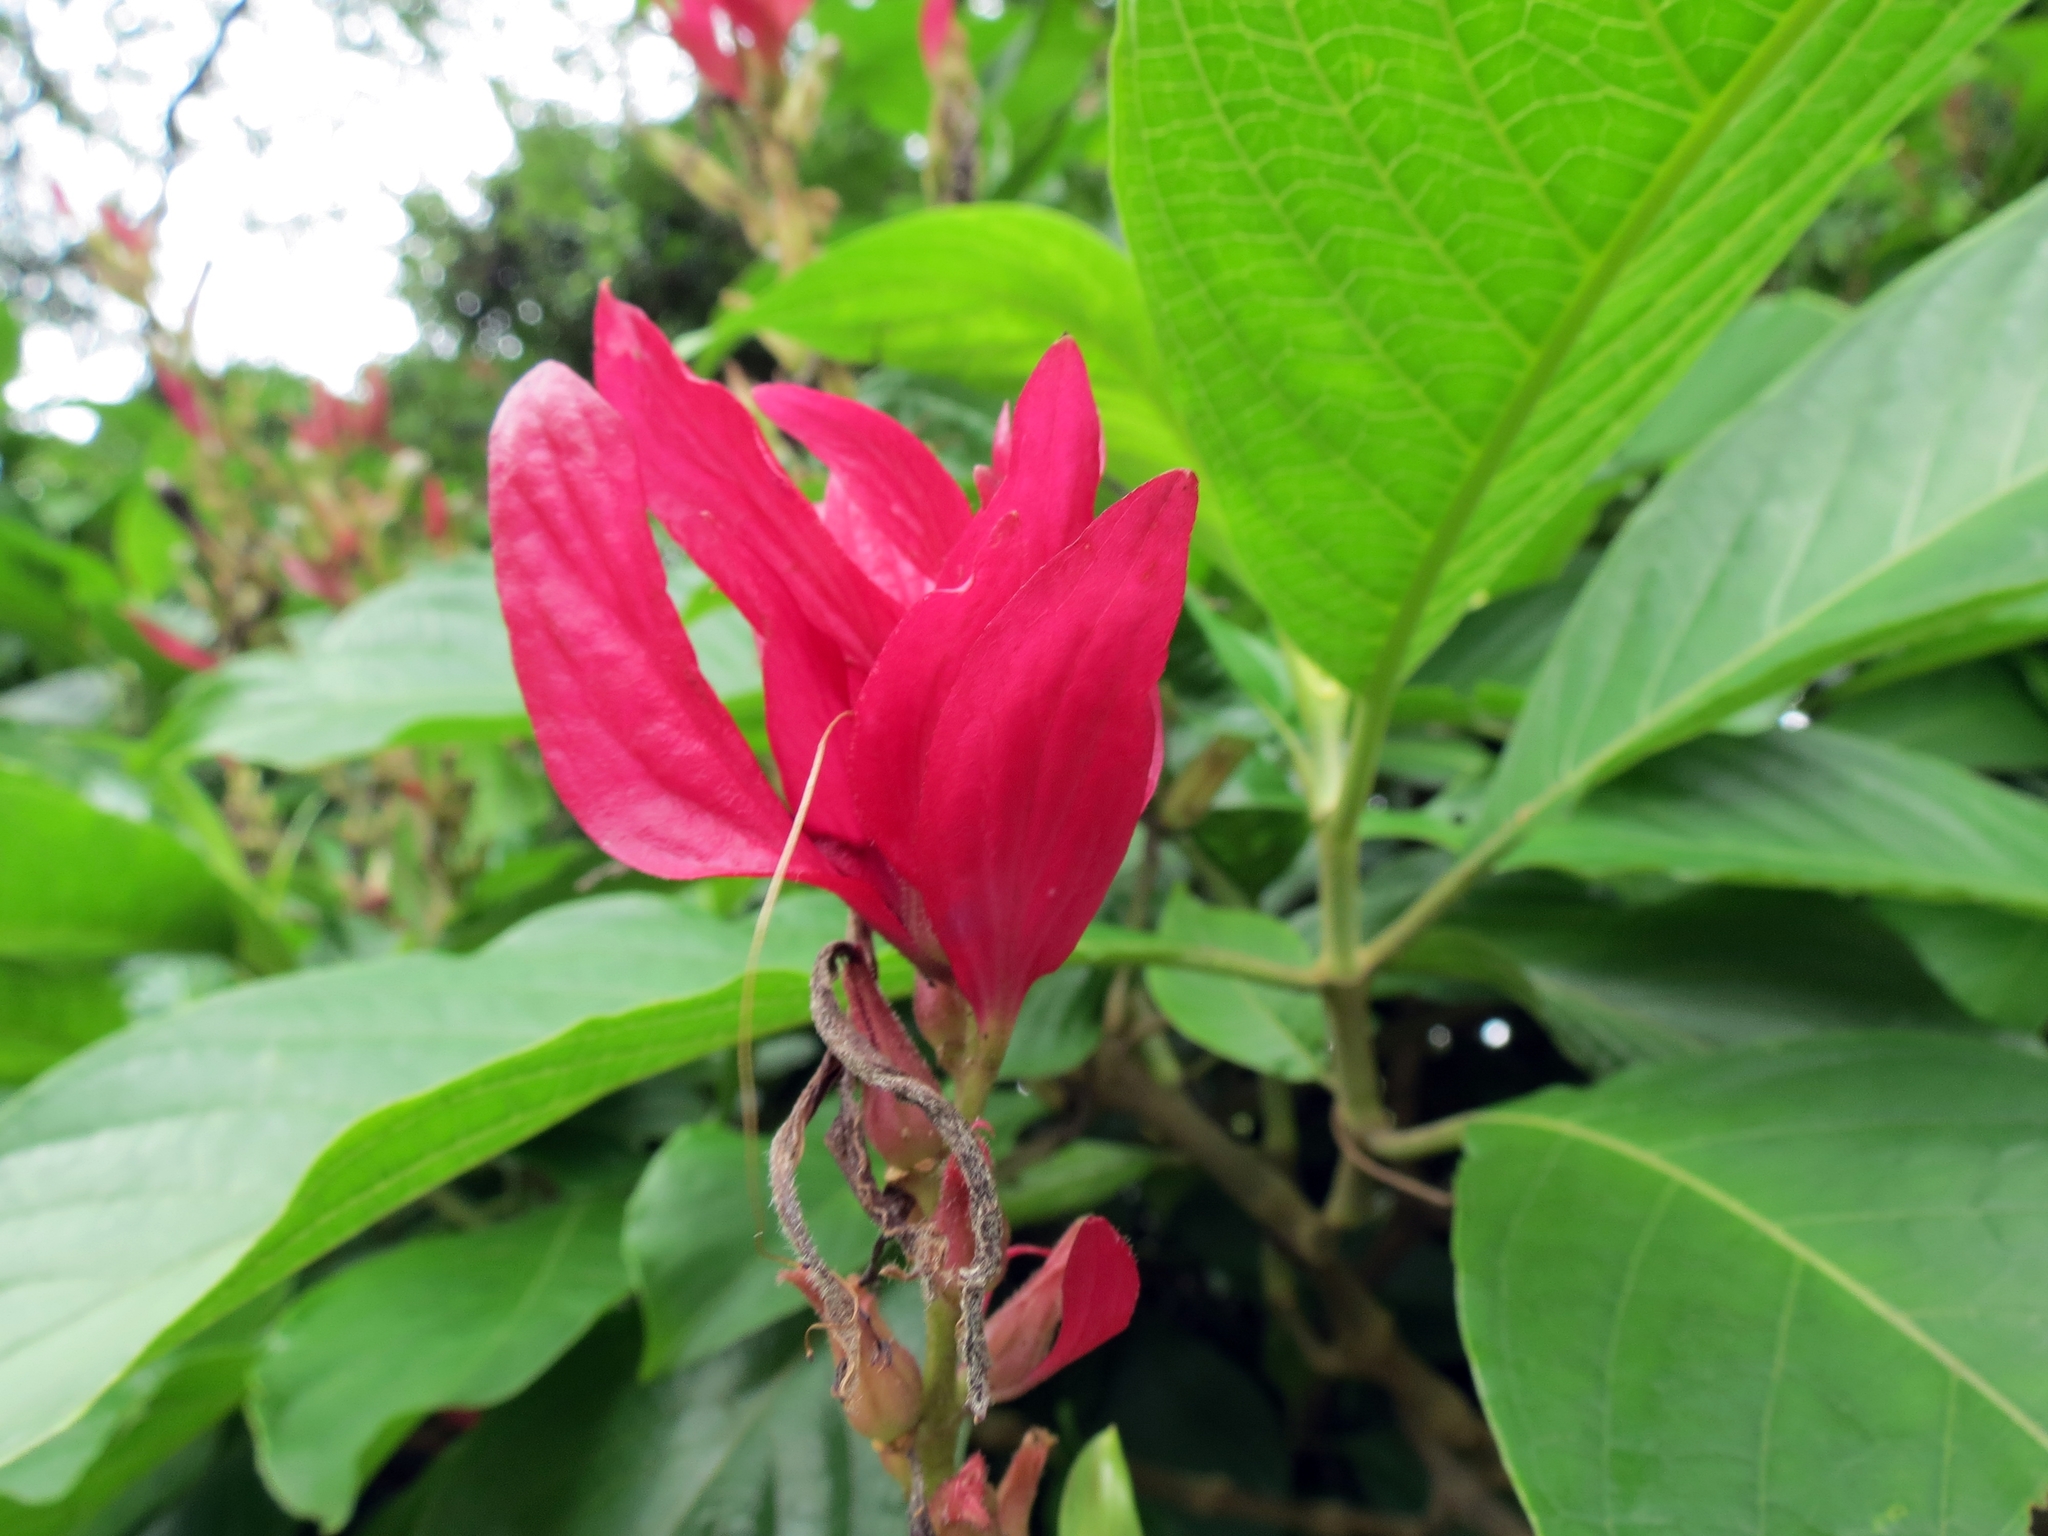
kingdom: Plantae
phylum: Tracheophyta
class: Magnoliopsida
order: Lamiales
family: Acanthaceae
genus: Megaskepasma
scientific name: Megaskepasma erythrochlamys
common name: Brazilian red-cloak
